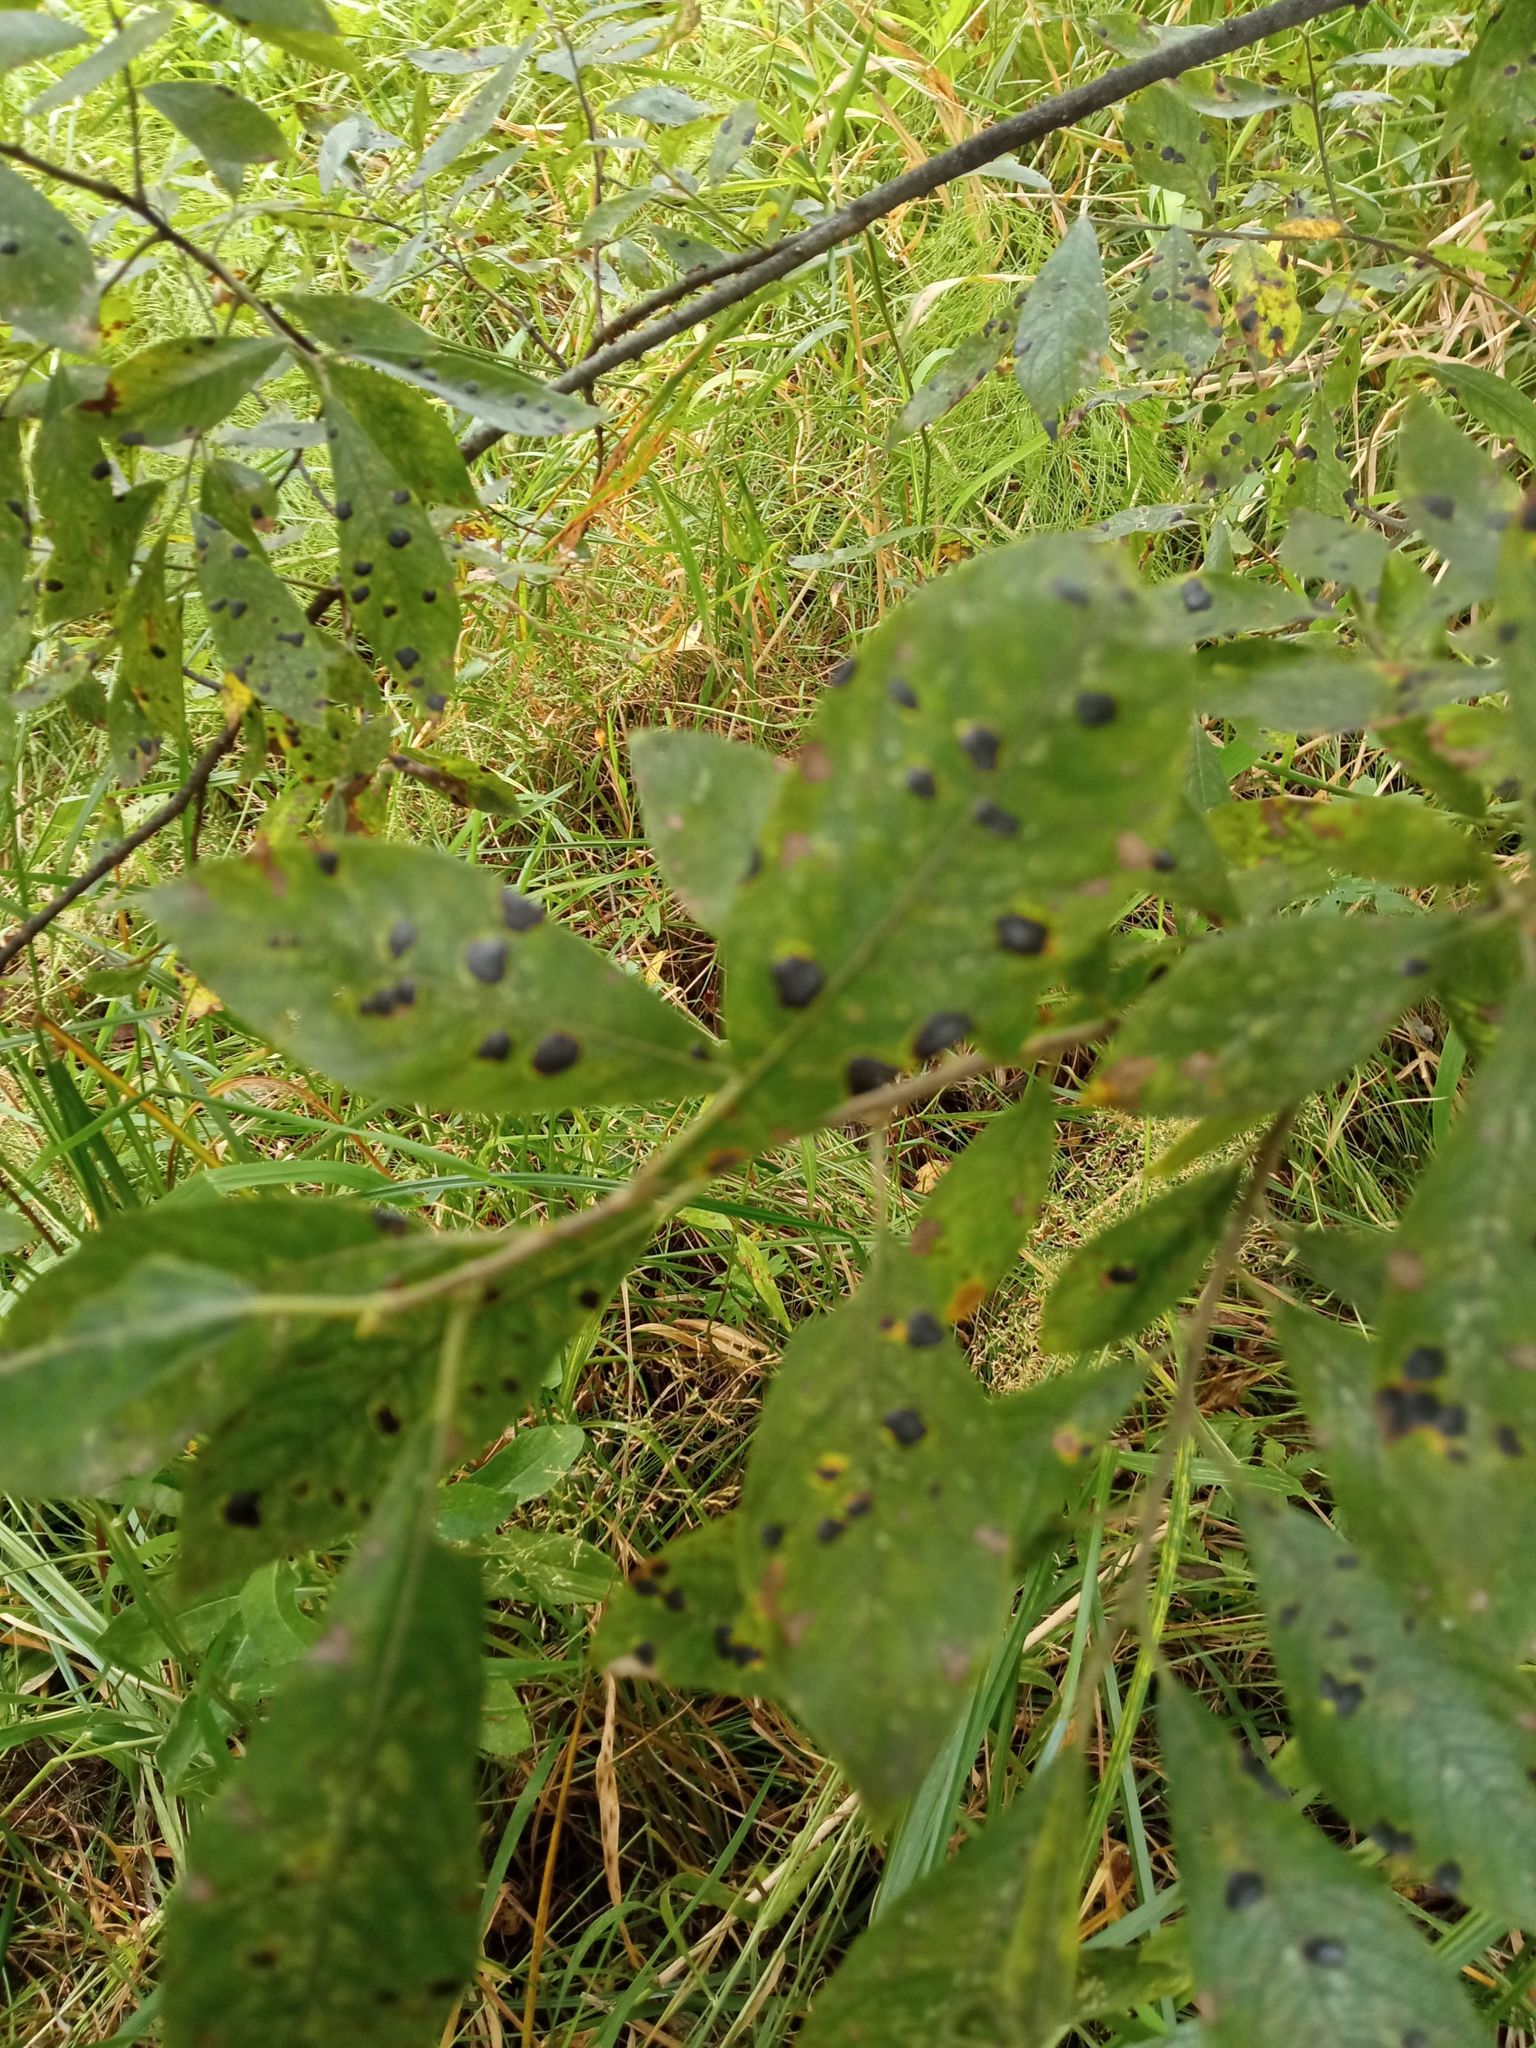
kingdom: Fungi
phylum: Ascomycota
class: Leotiomycetes
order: Rhytismatales
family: Rhytismataceae
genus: Rhytisma
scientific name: Rhytisma salicinum
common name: Willow tarspot
